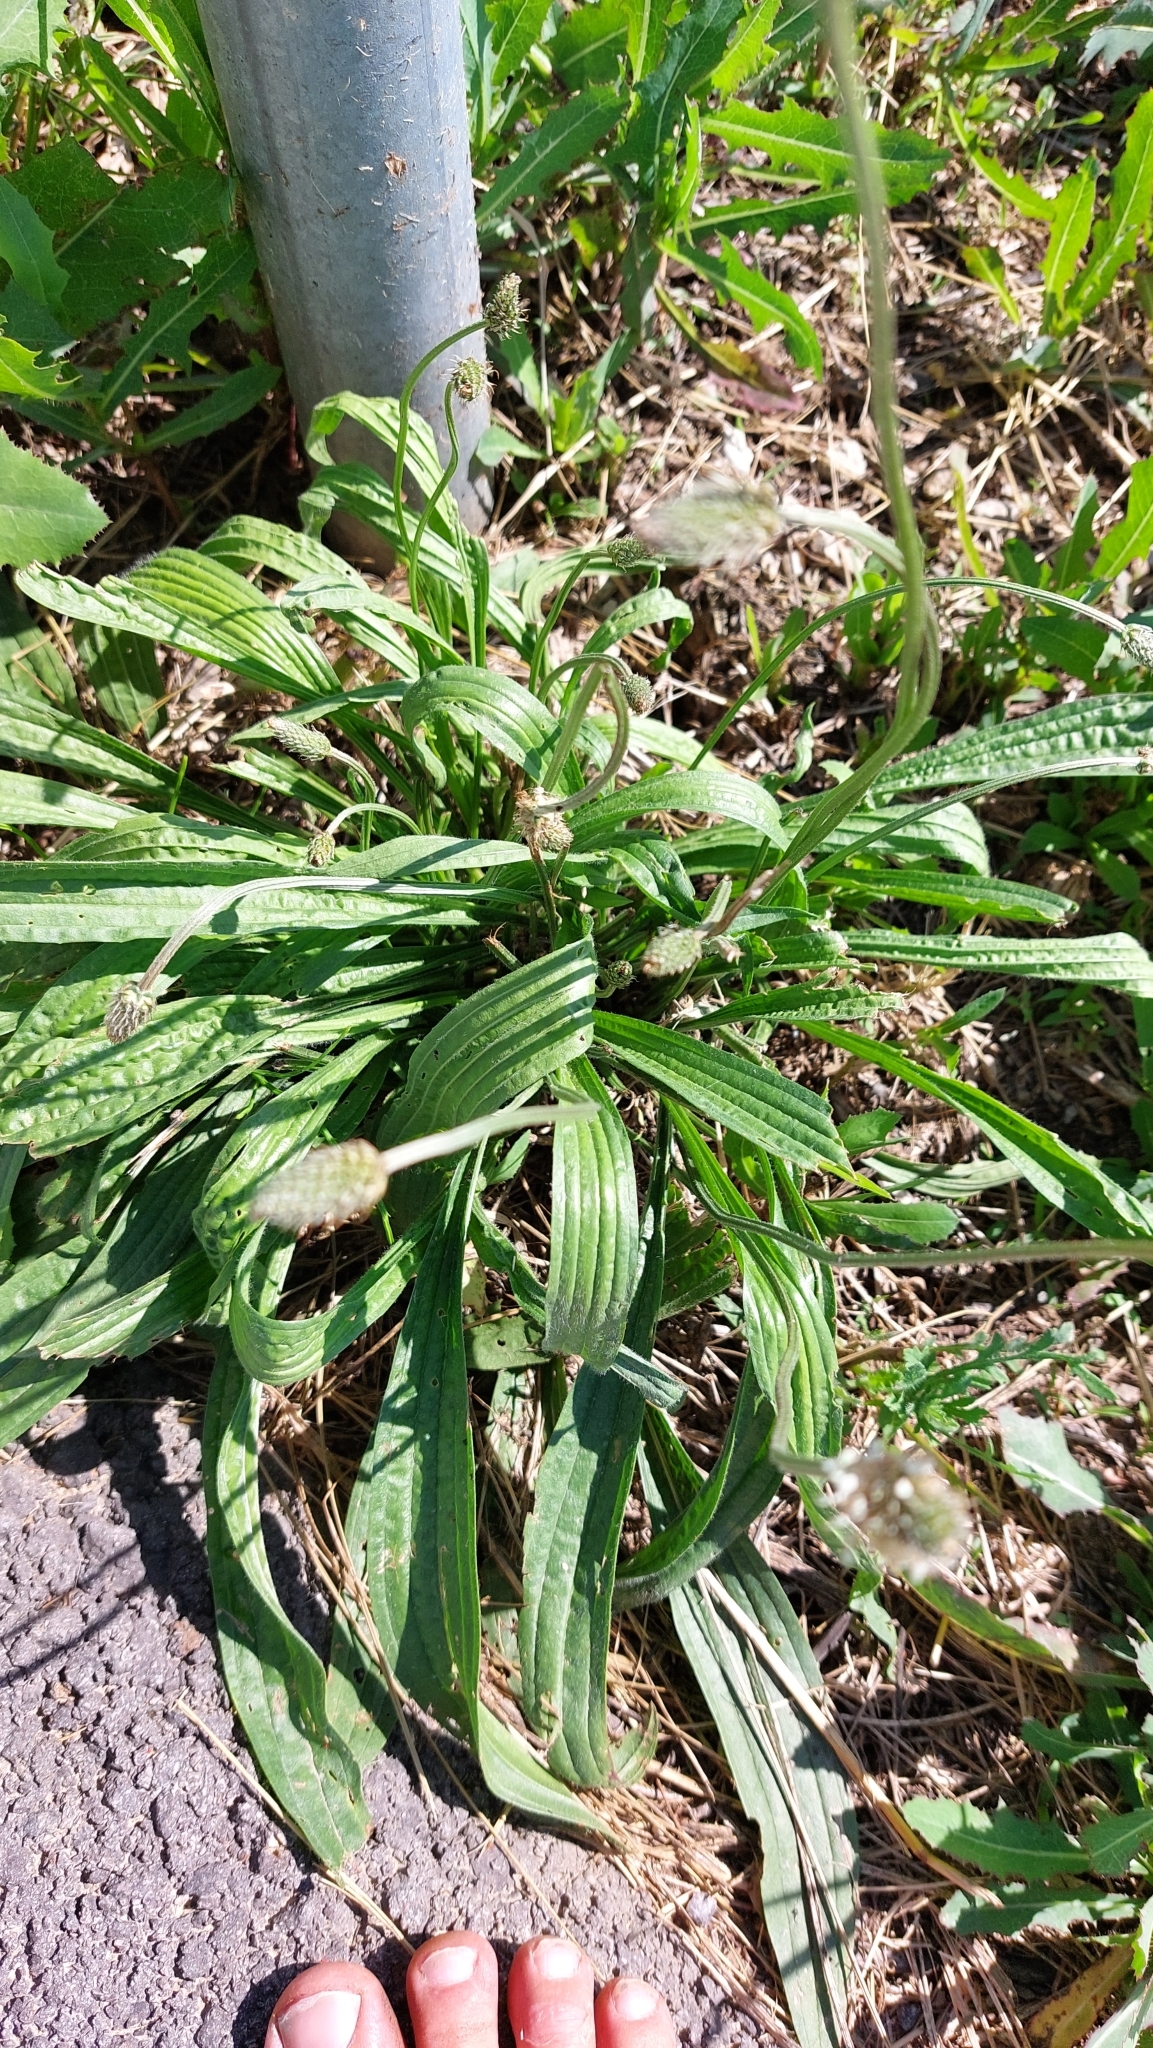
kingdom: Plantae
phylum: Tracheophyta
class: Magnoliopsida
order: Lamiales
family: Plantaginaceae
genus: Plantago
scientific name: Plantago lanceolata
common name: Ribwort plantain
